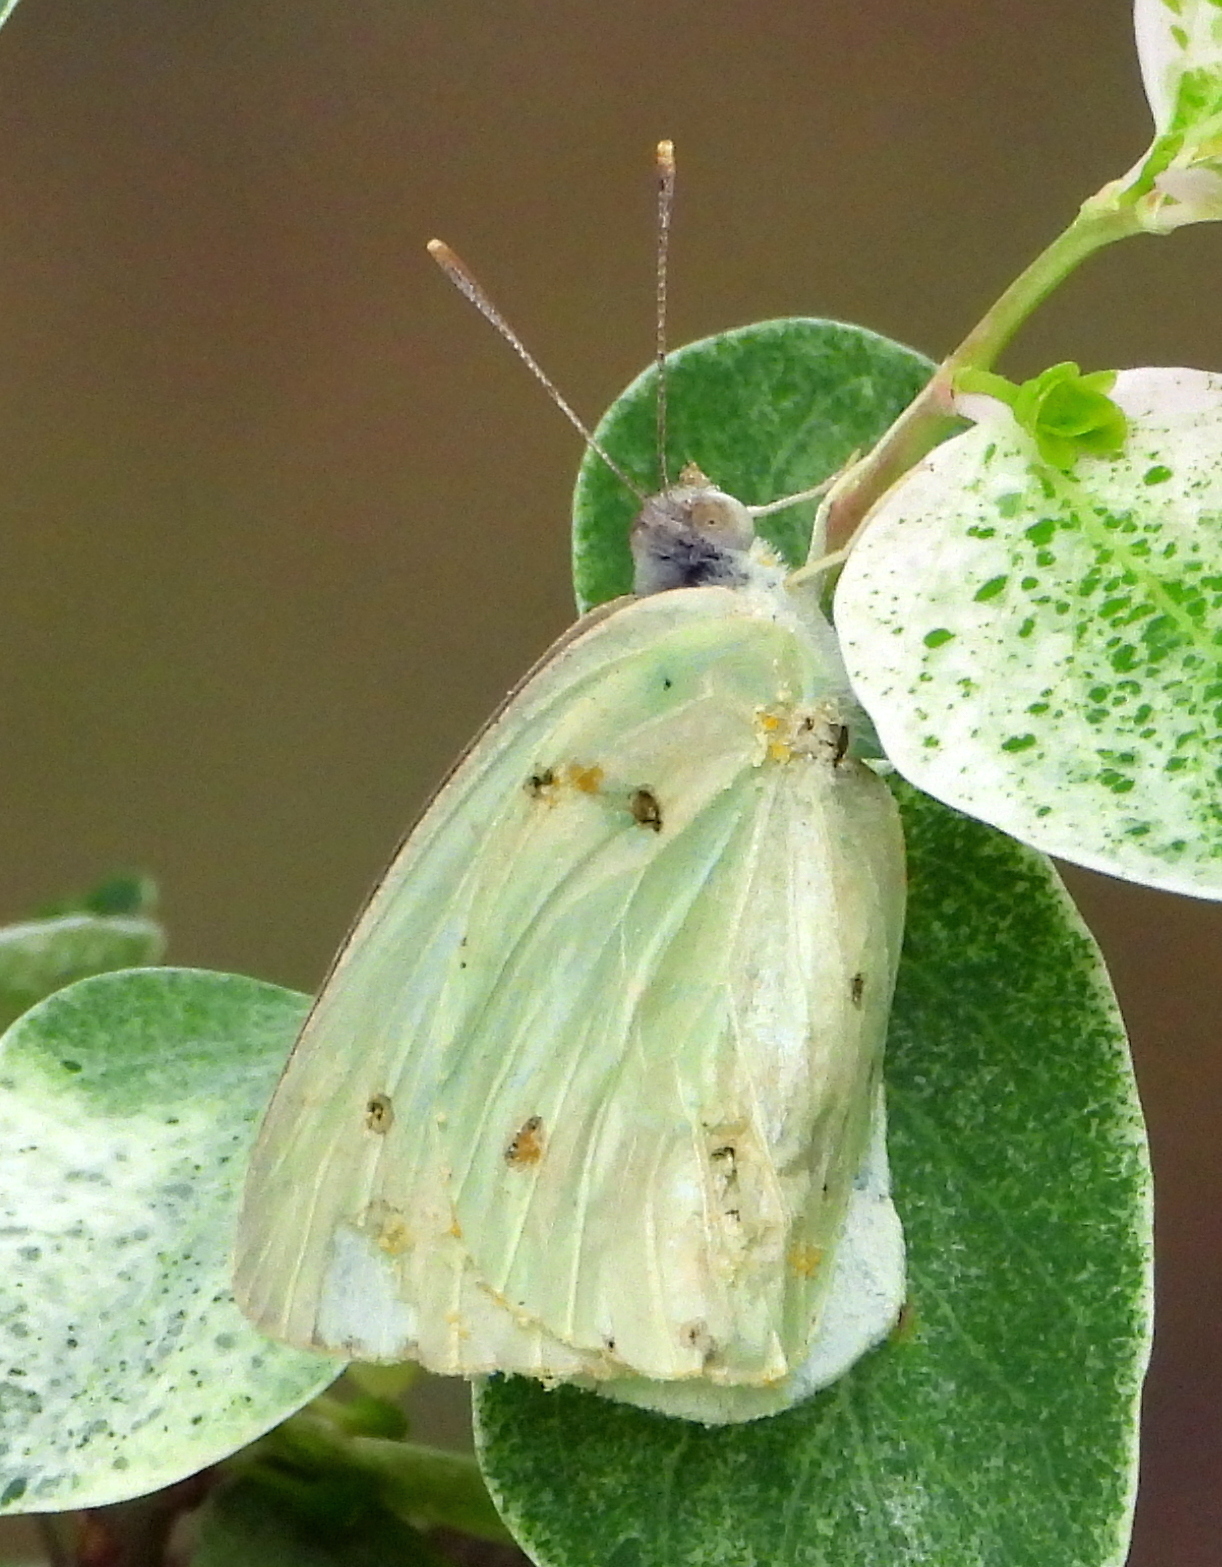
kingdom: Animalia
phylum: Arthropoda
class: Insecta
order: Lepidoptera
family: Pieridae
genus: Catopsilia
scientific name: Catopsilia florella
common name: African migrant
